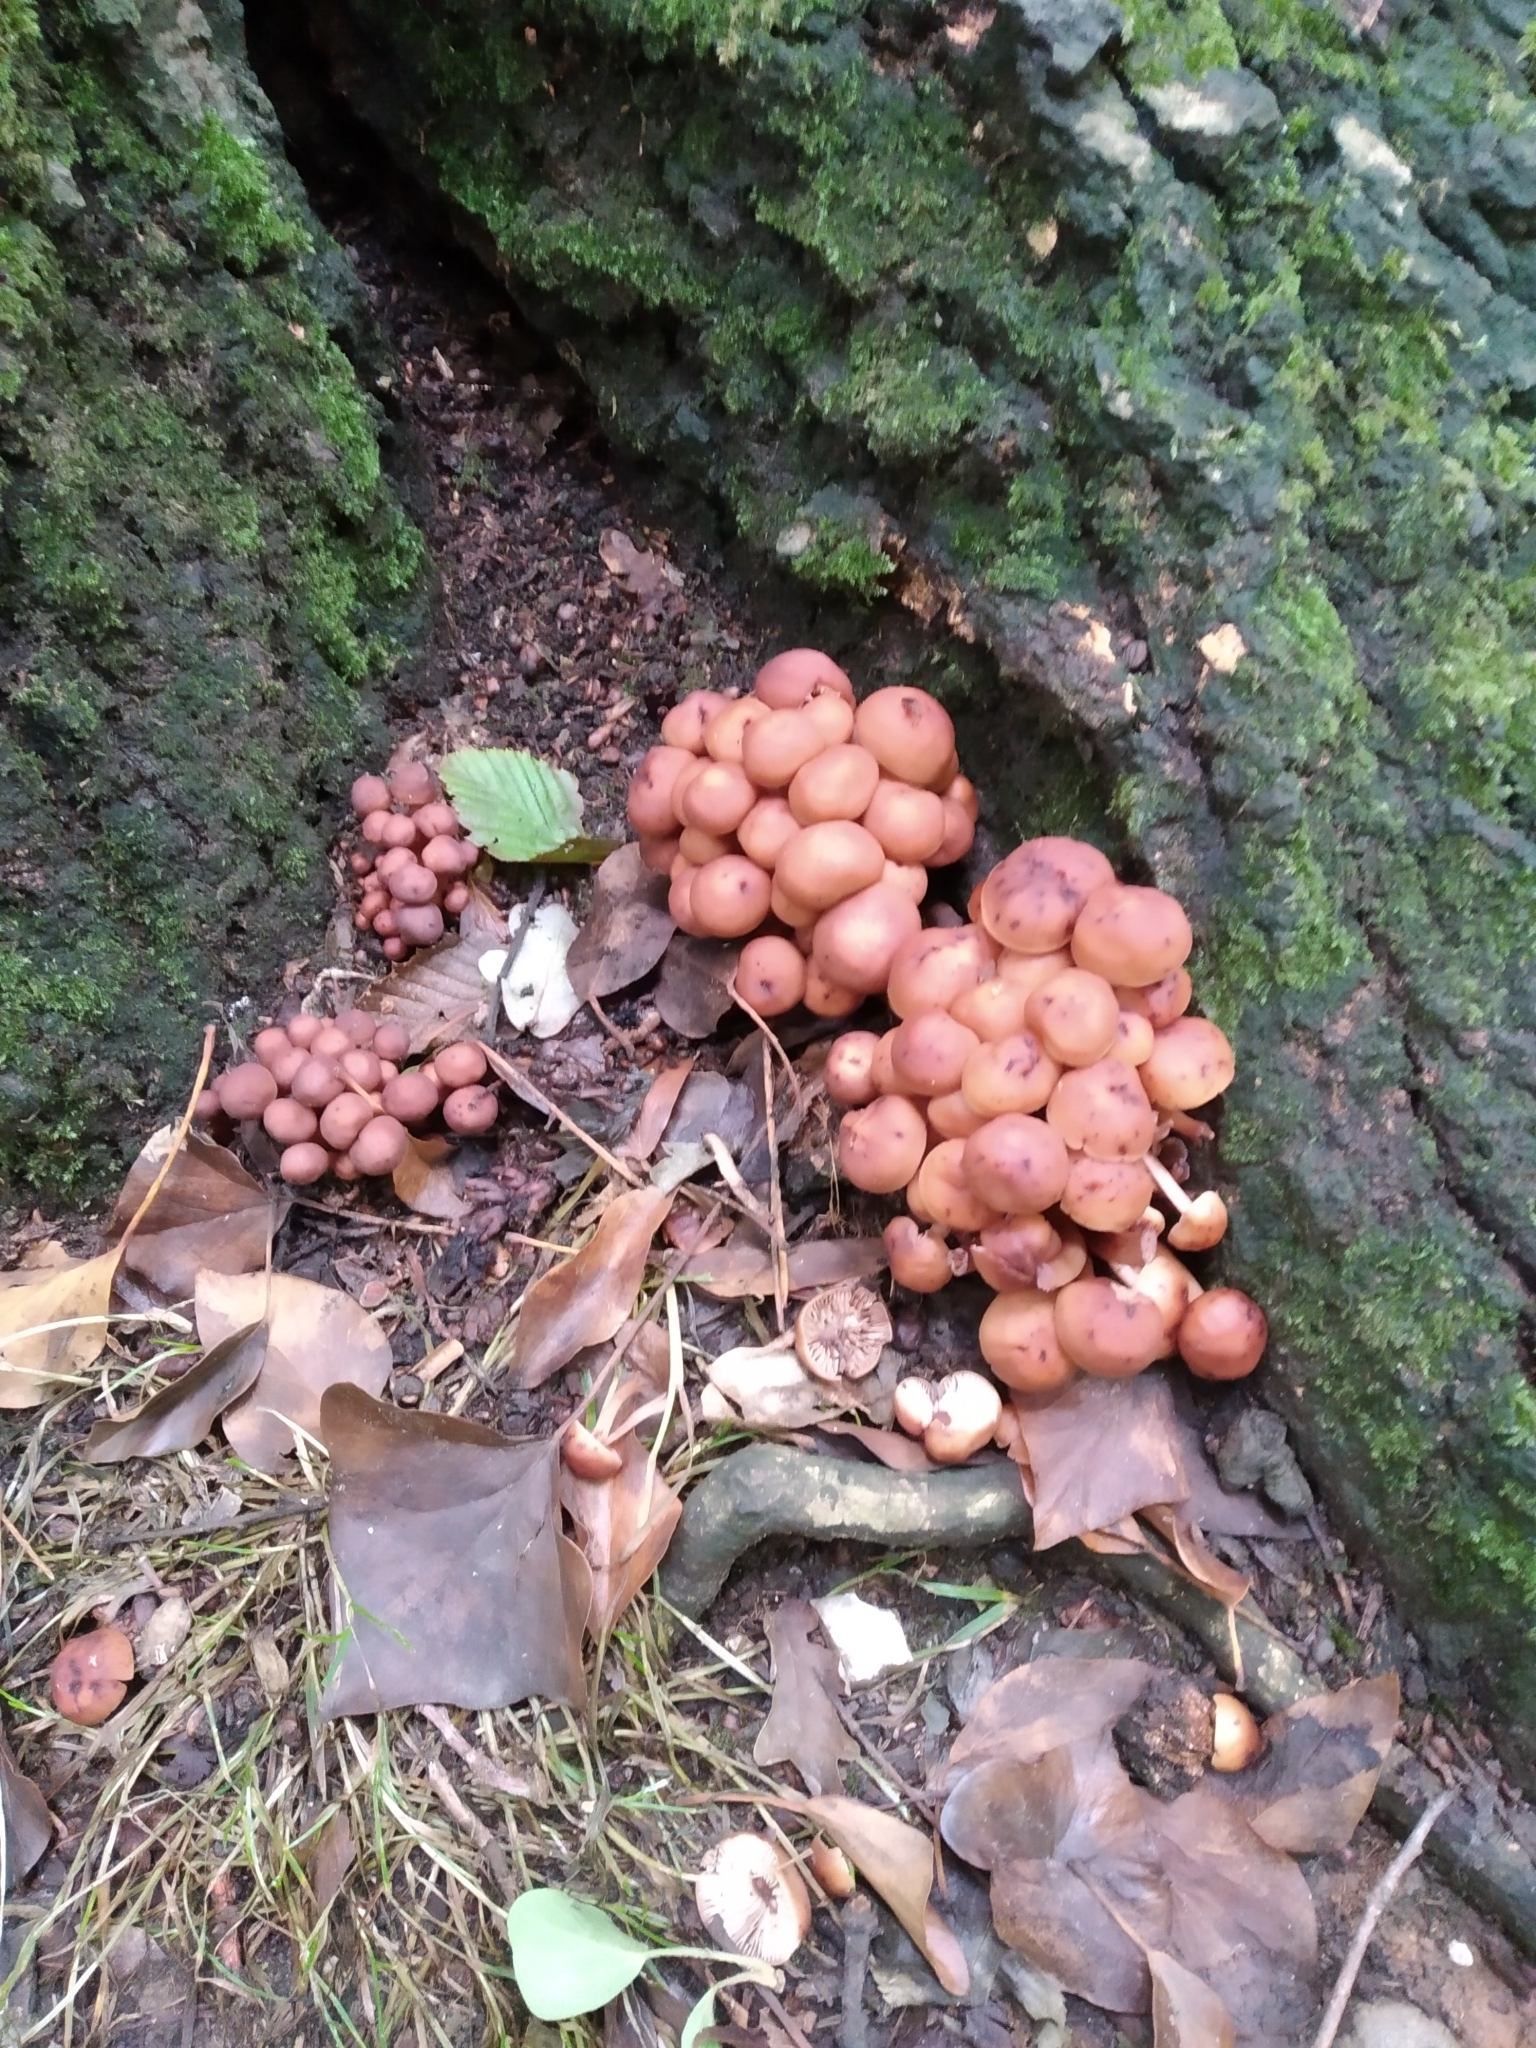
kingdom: Fungi
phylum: Basidiomycota
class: Agaricomycetes
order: Agaricales
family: Omphalotaceae
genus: Gymnopus
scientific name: Gymnopus fusipes
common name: Spindle shank
